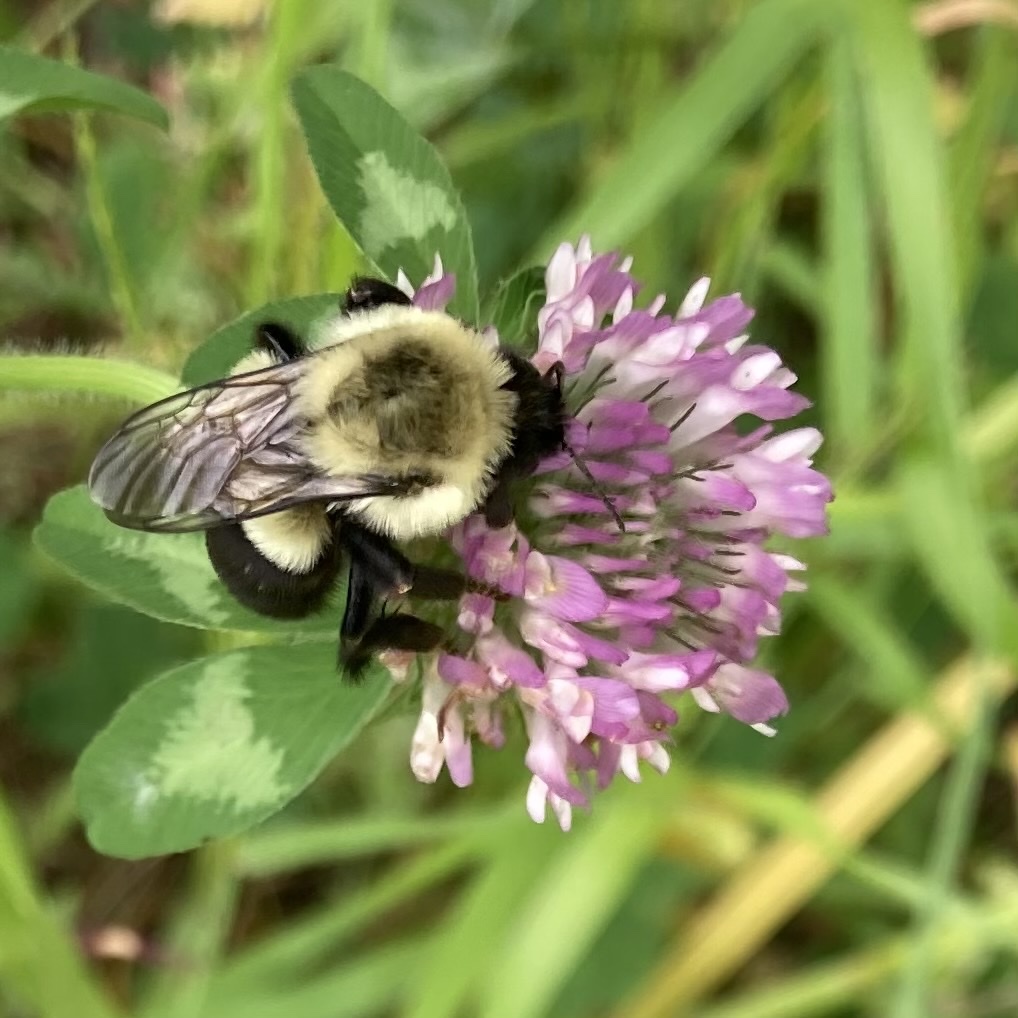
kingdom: Animalia
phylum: Arthropoda
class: Insecta
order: Hymenoptera
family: Apidae
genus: Bombus
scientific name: Bombus impatiens
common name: Common eastern bumble bee
